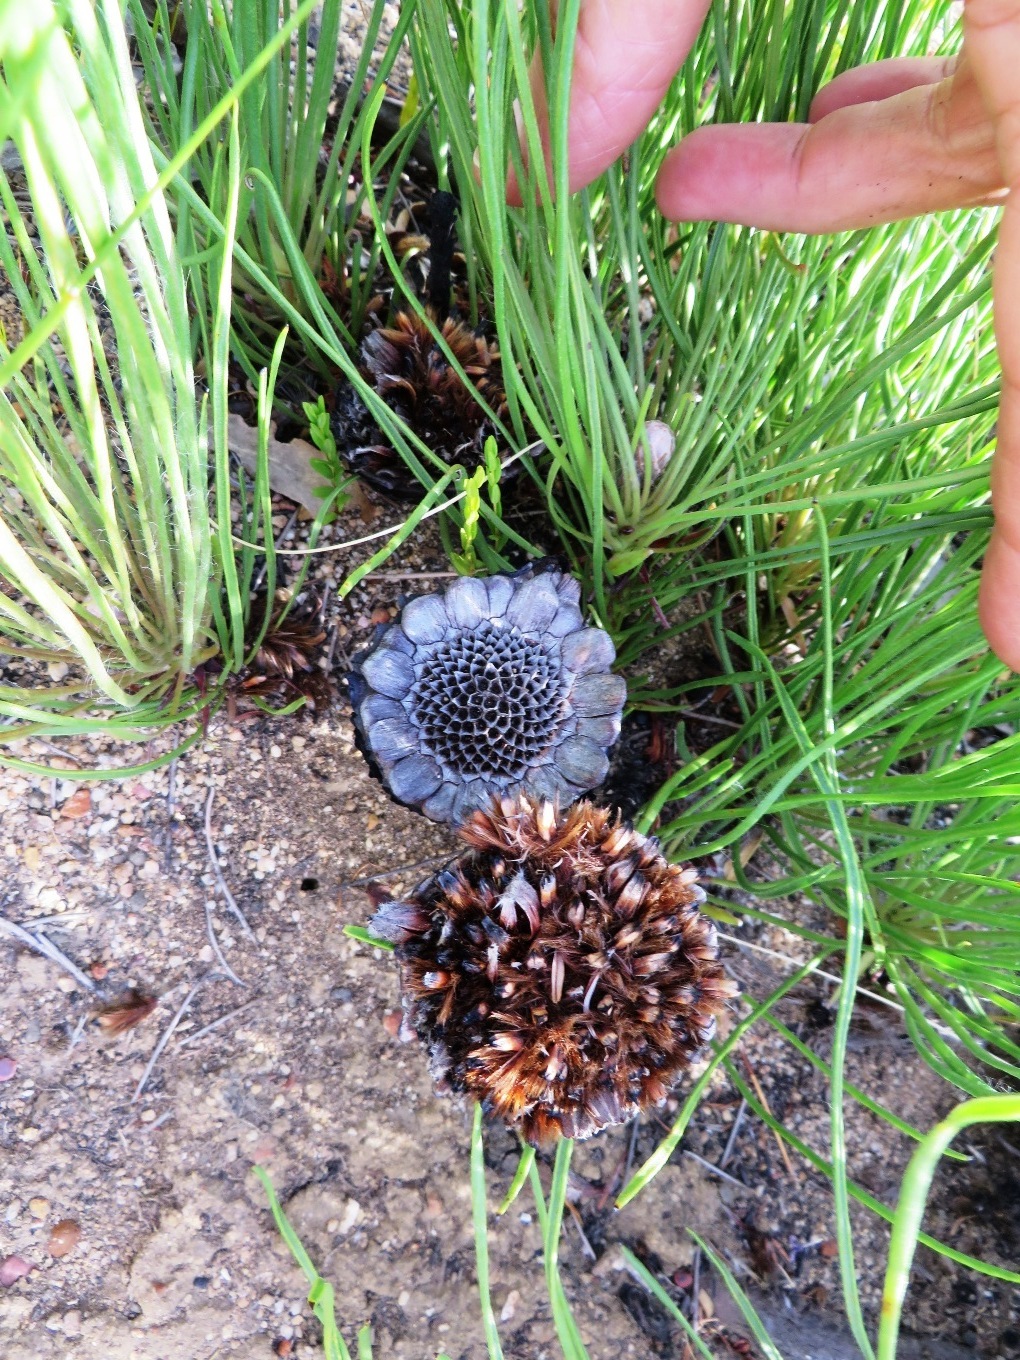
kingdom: Plantae
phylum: Tracheophyta
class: Magnoliopsida
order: Proteales
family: Proteaceae
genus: Protea
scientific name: Protea scorzonerifolia
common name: Channel-leaf sugarbush
